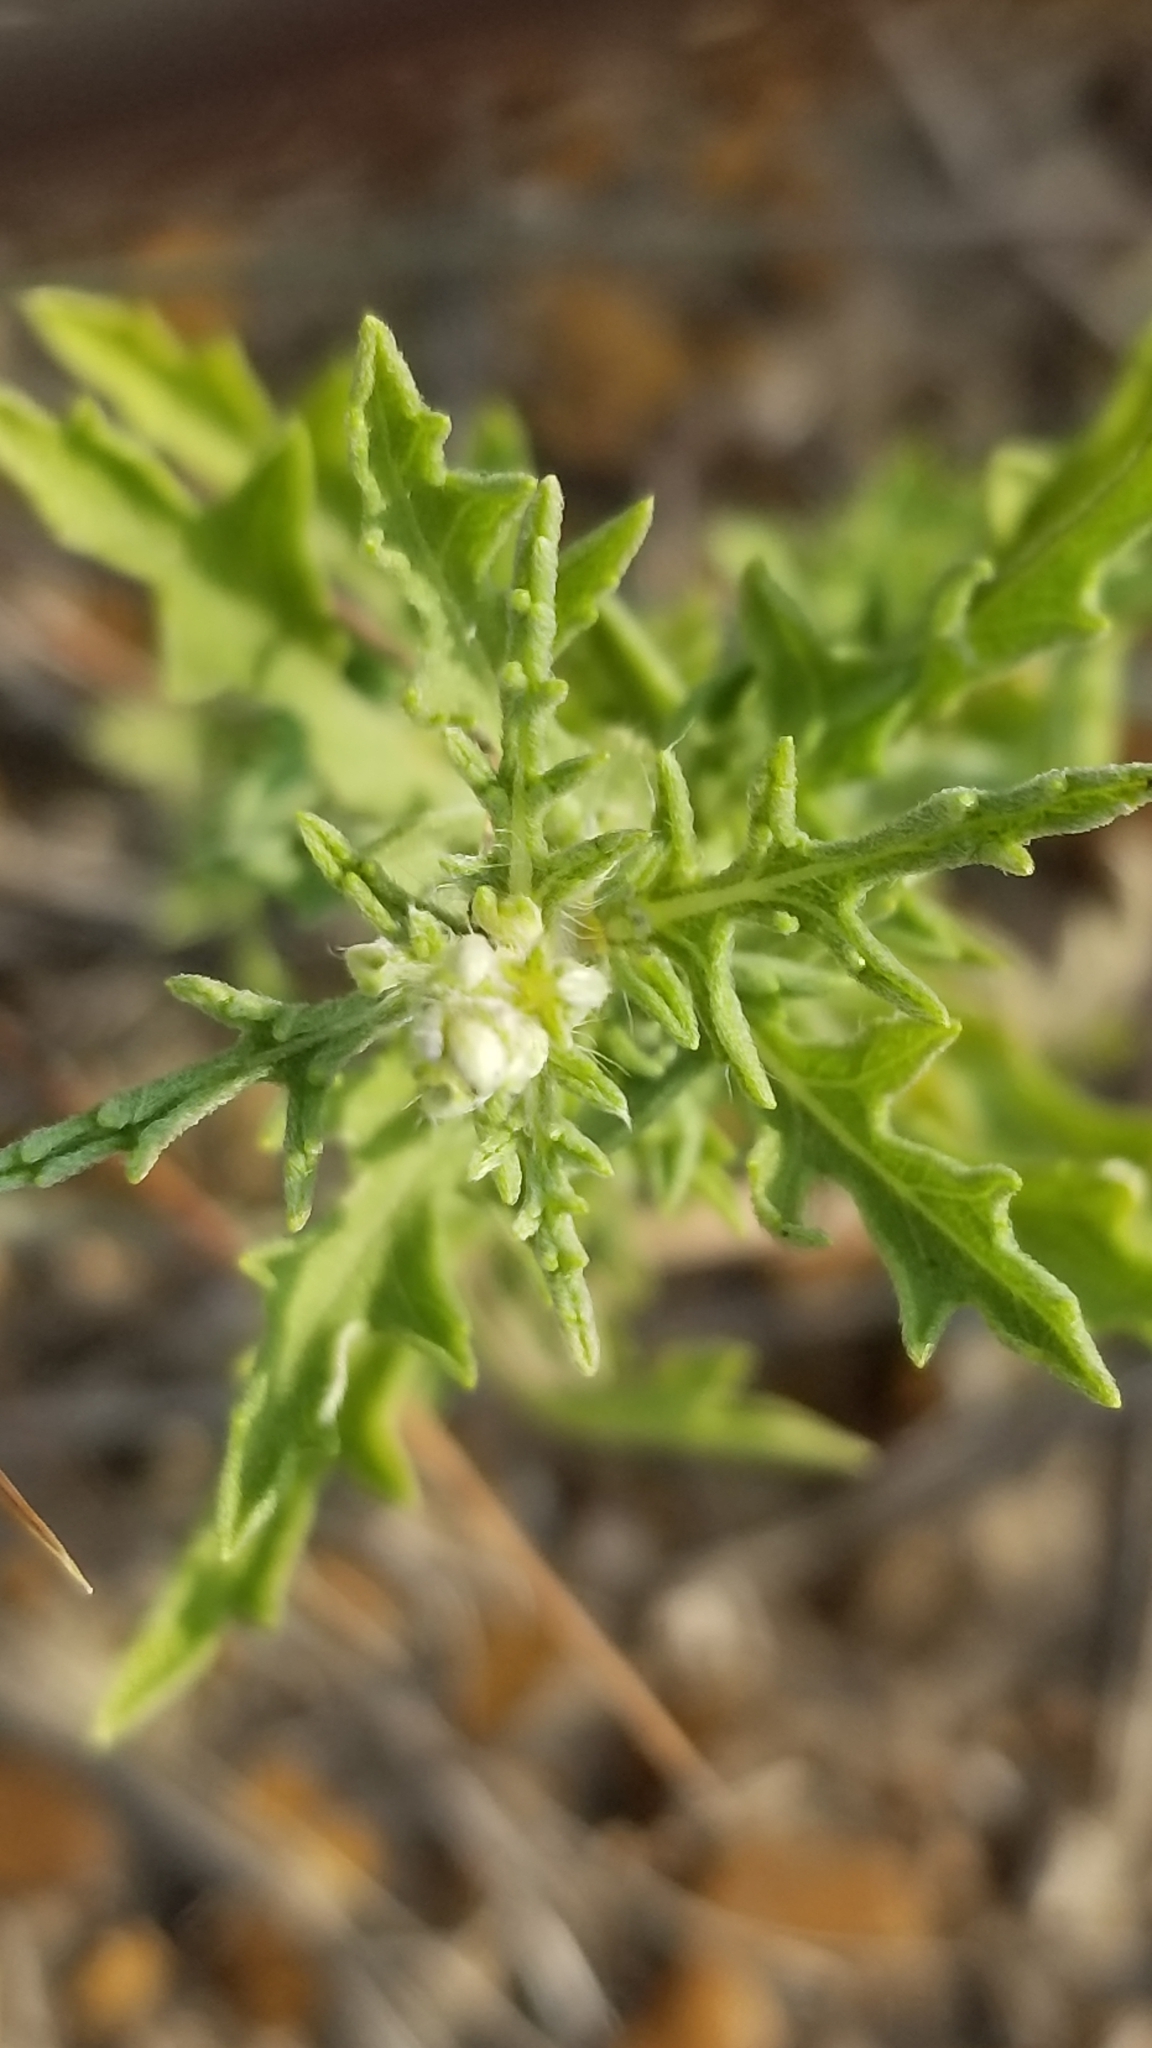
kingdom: Plantae
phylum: Tracheophyta
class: Magnoliopsida
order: Asterales
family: Asteraceae
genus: Ambrosia
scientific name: Ambrosia psilostachya
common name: Perennial ragweed
